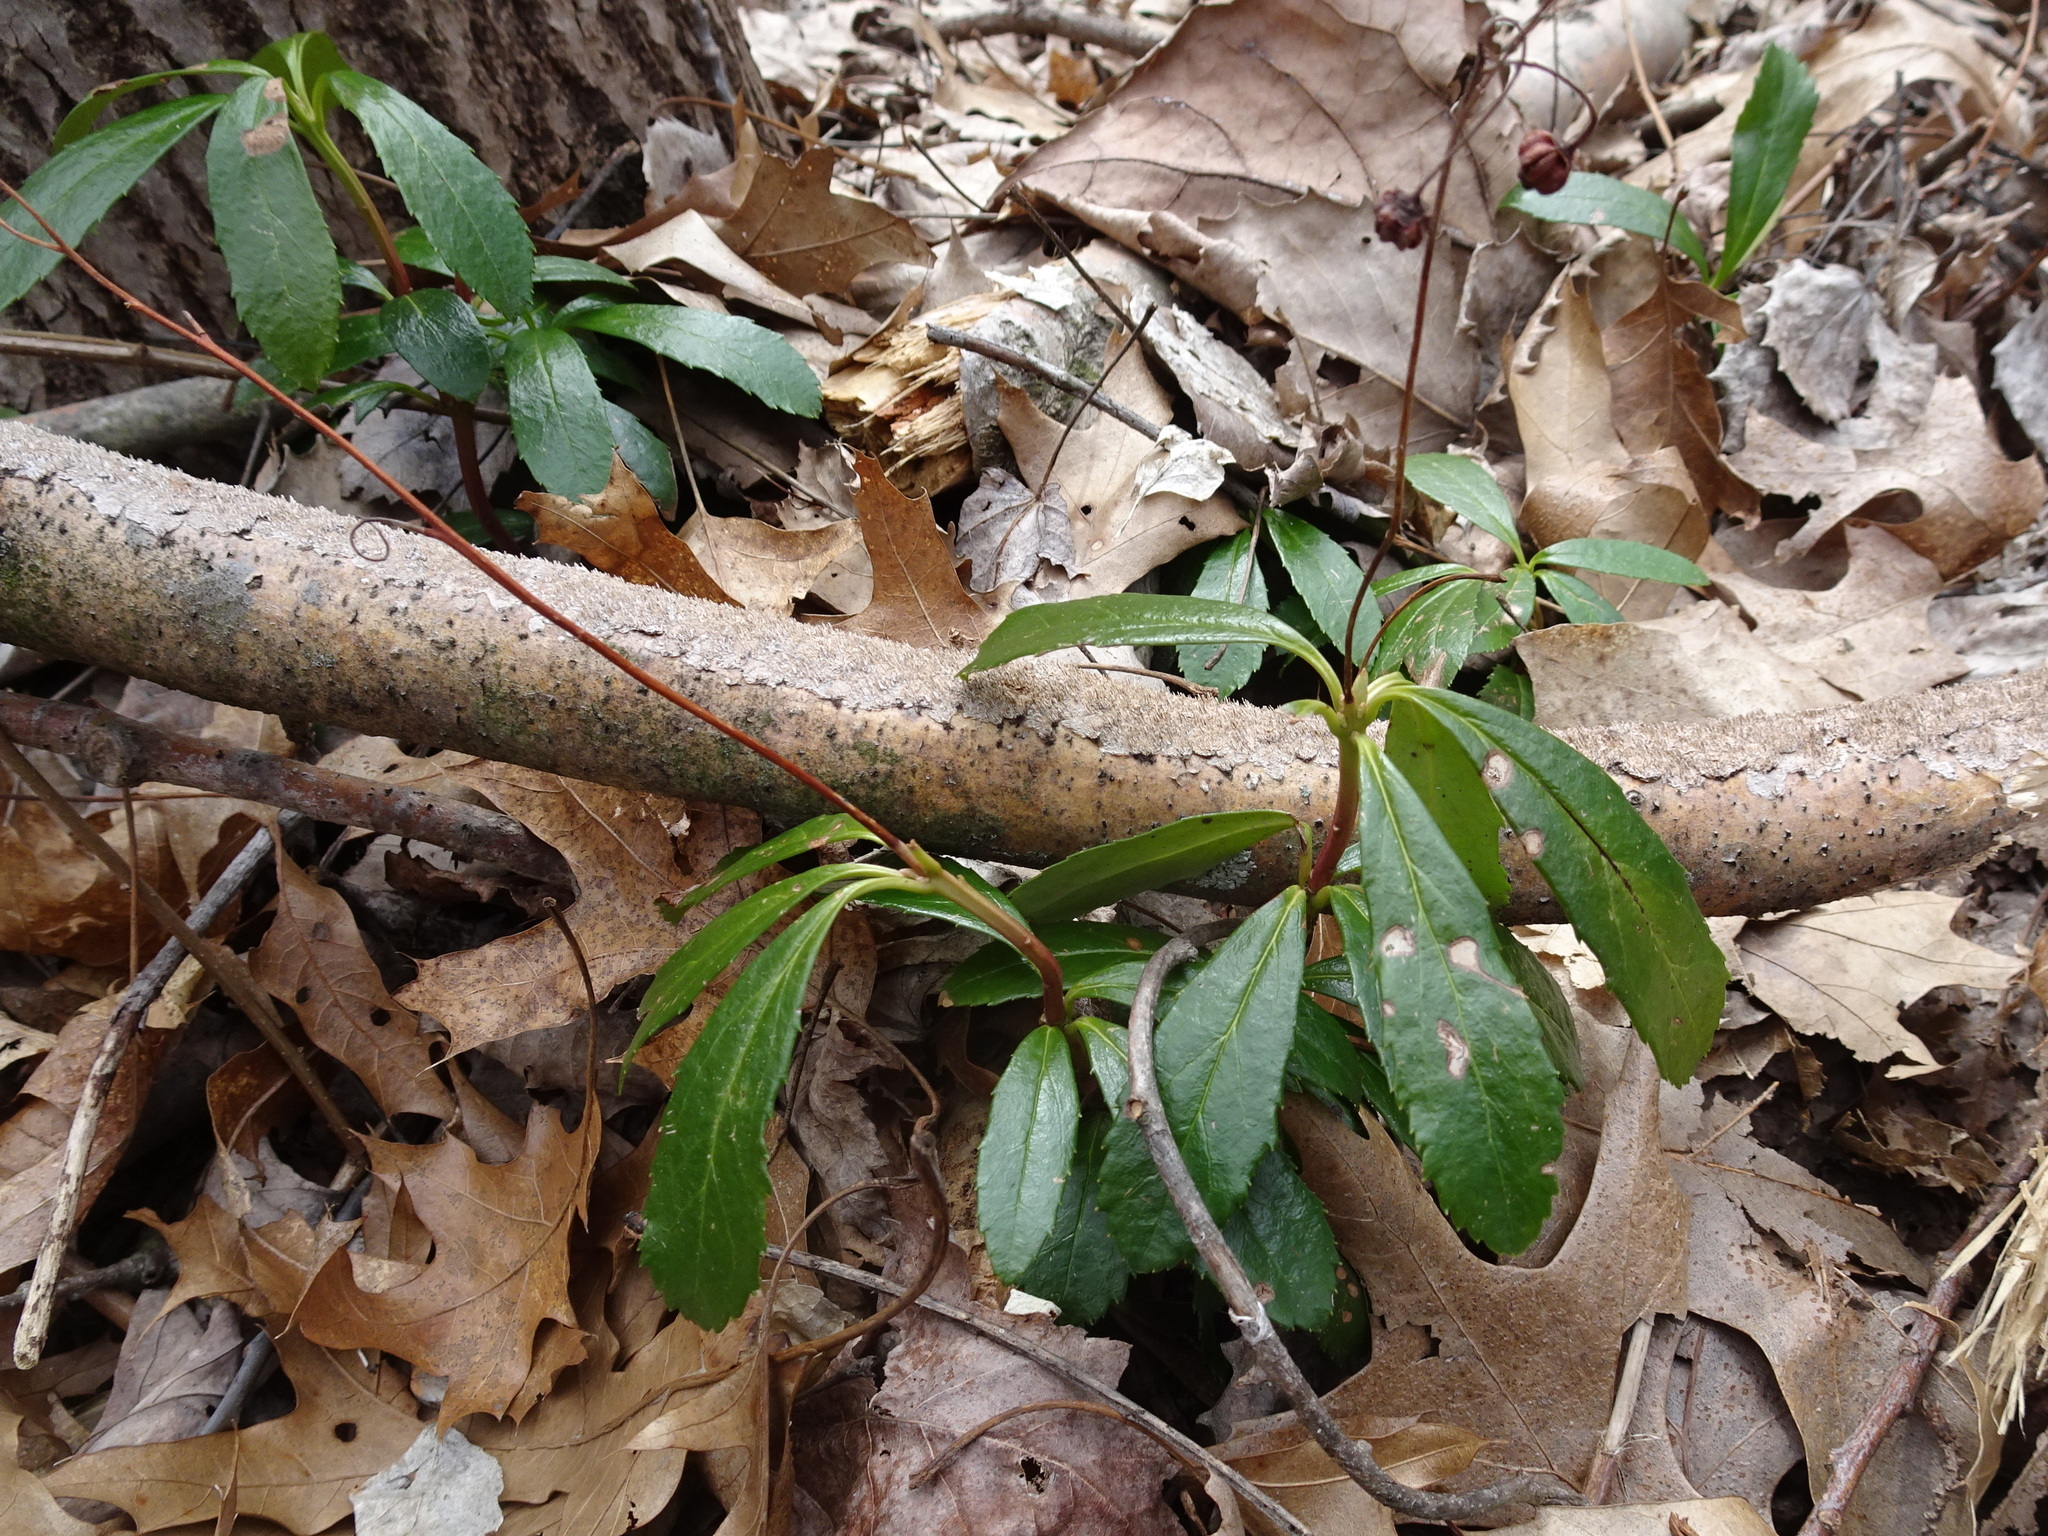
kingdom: Plantae
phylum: Tracheophyta
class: Magnoliopsida
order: Ericales
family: Ericaceae
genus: Chimaphila
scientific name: Chimaphila umbellata
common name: Pipsissewa
